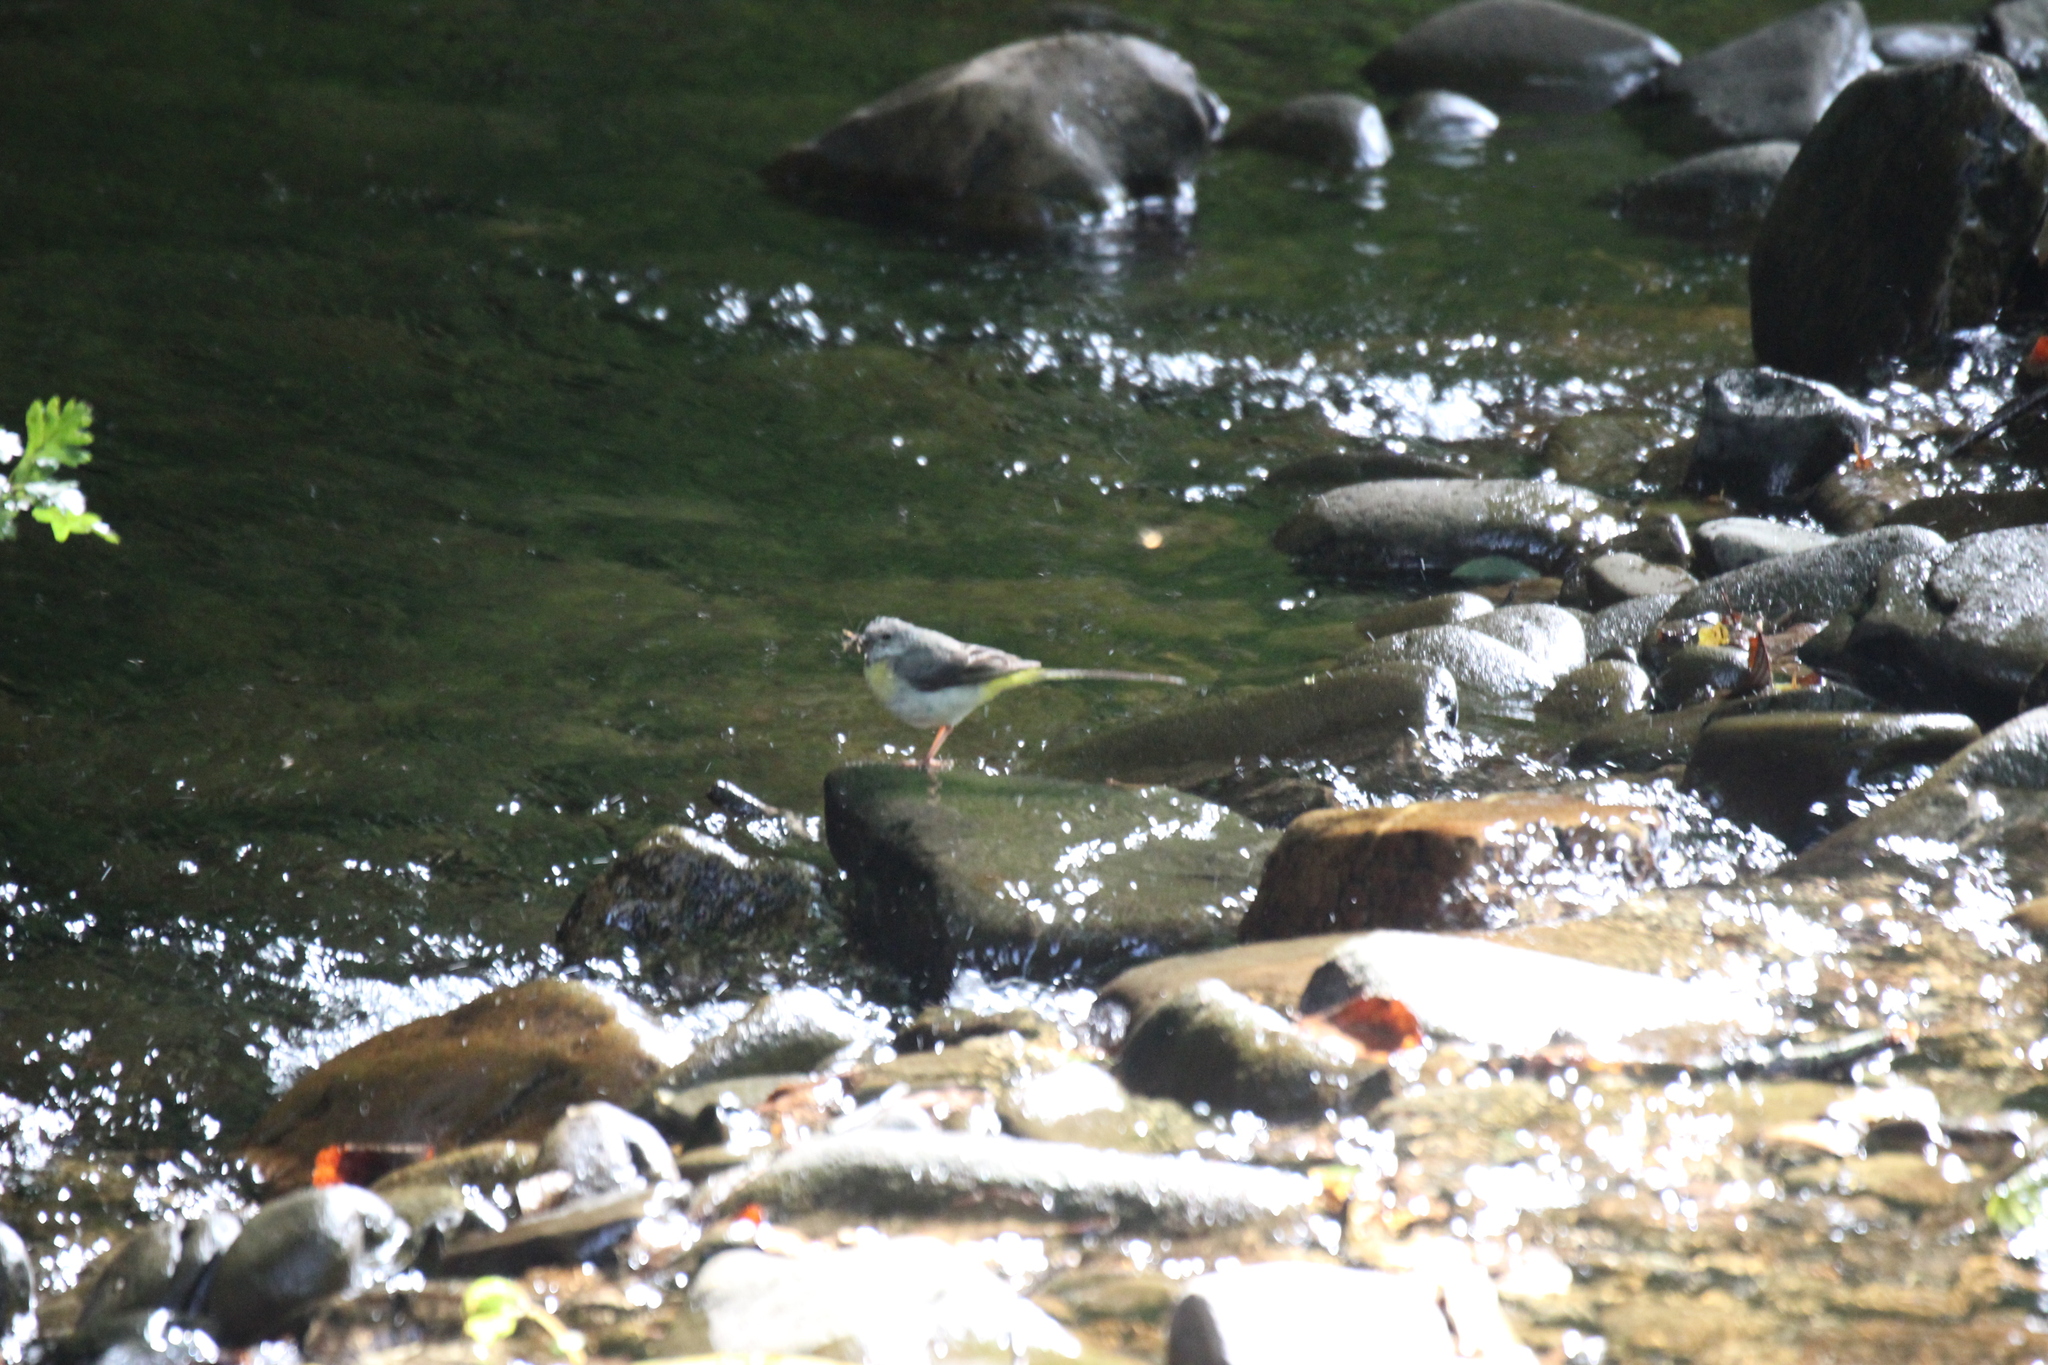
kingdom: Animalia
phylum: Chordata
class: Aves
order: Passeriformes
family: Motacillidae
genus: Motacilla
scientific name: Motacilla cinerea
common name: Grey wagtail
